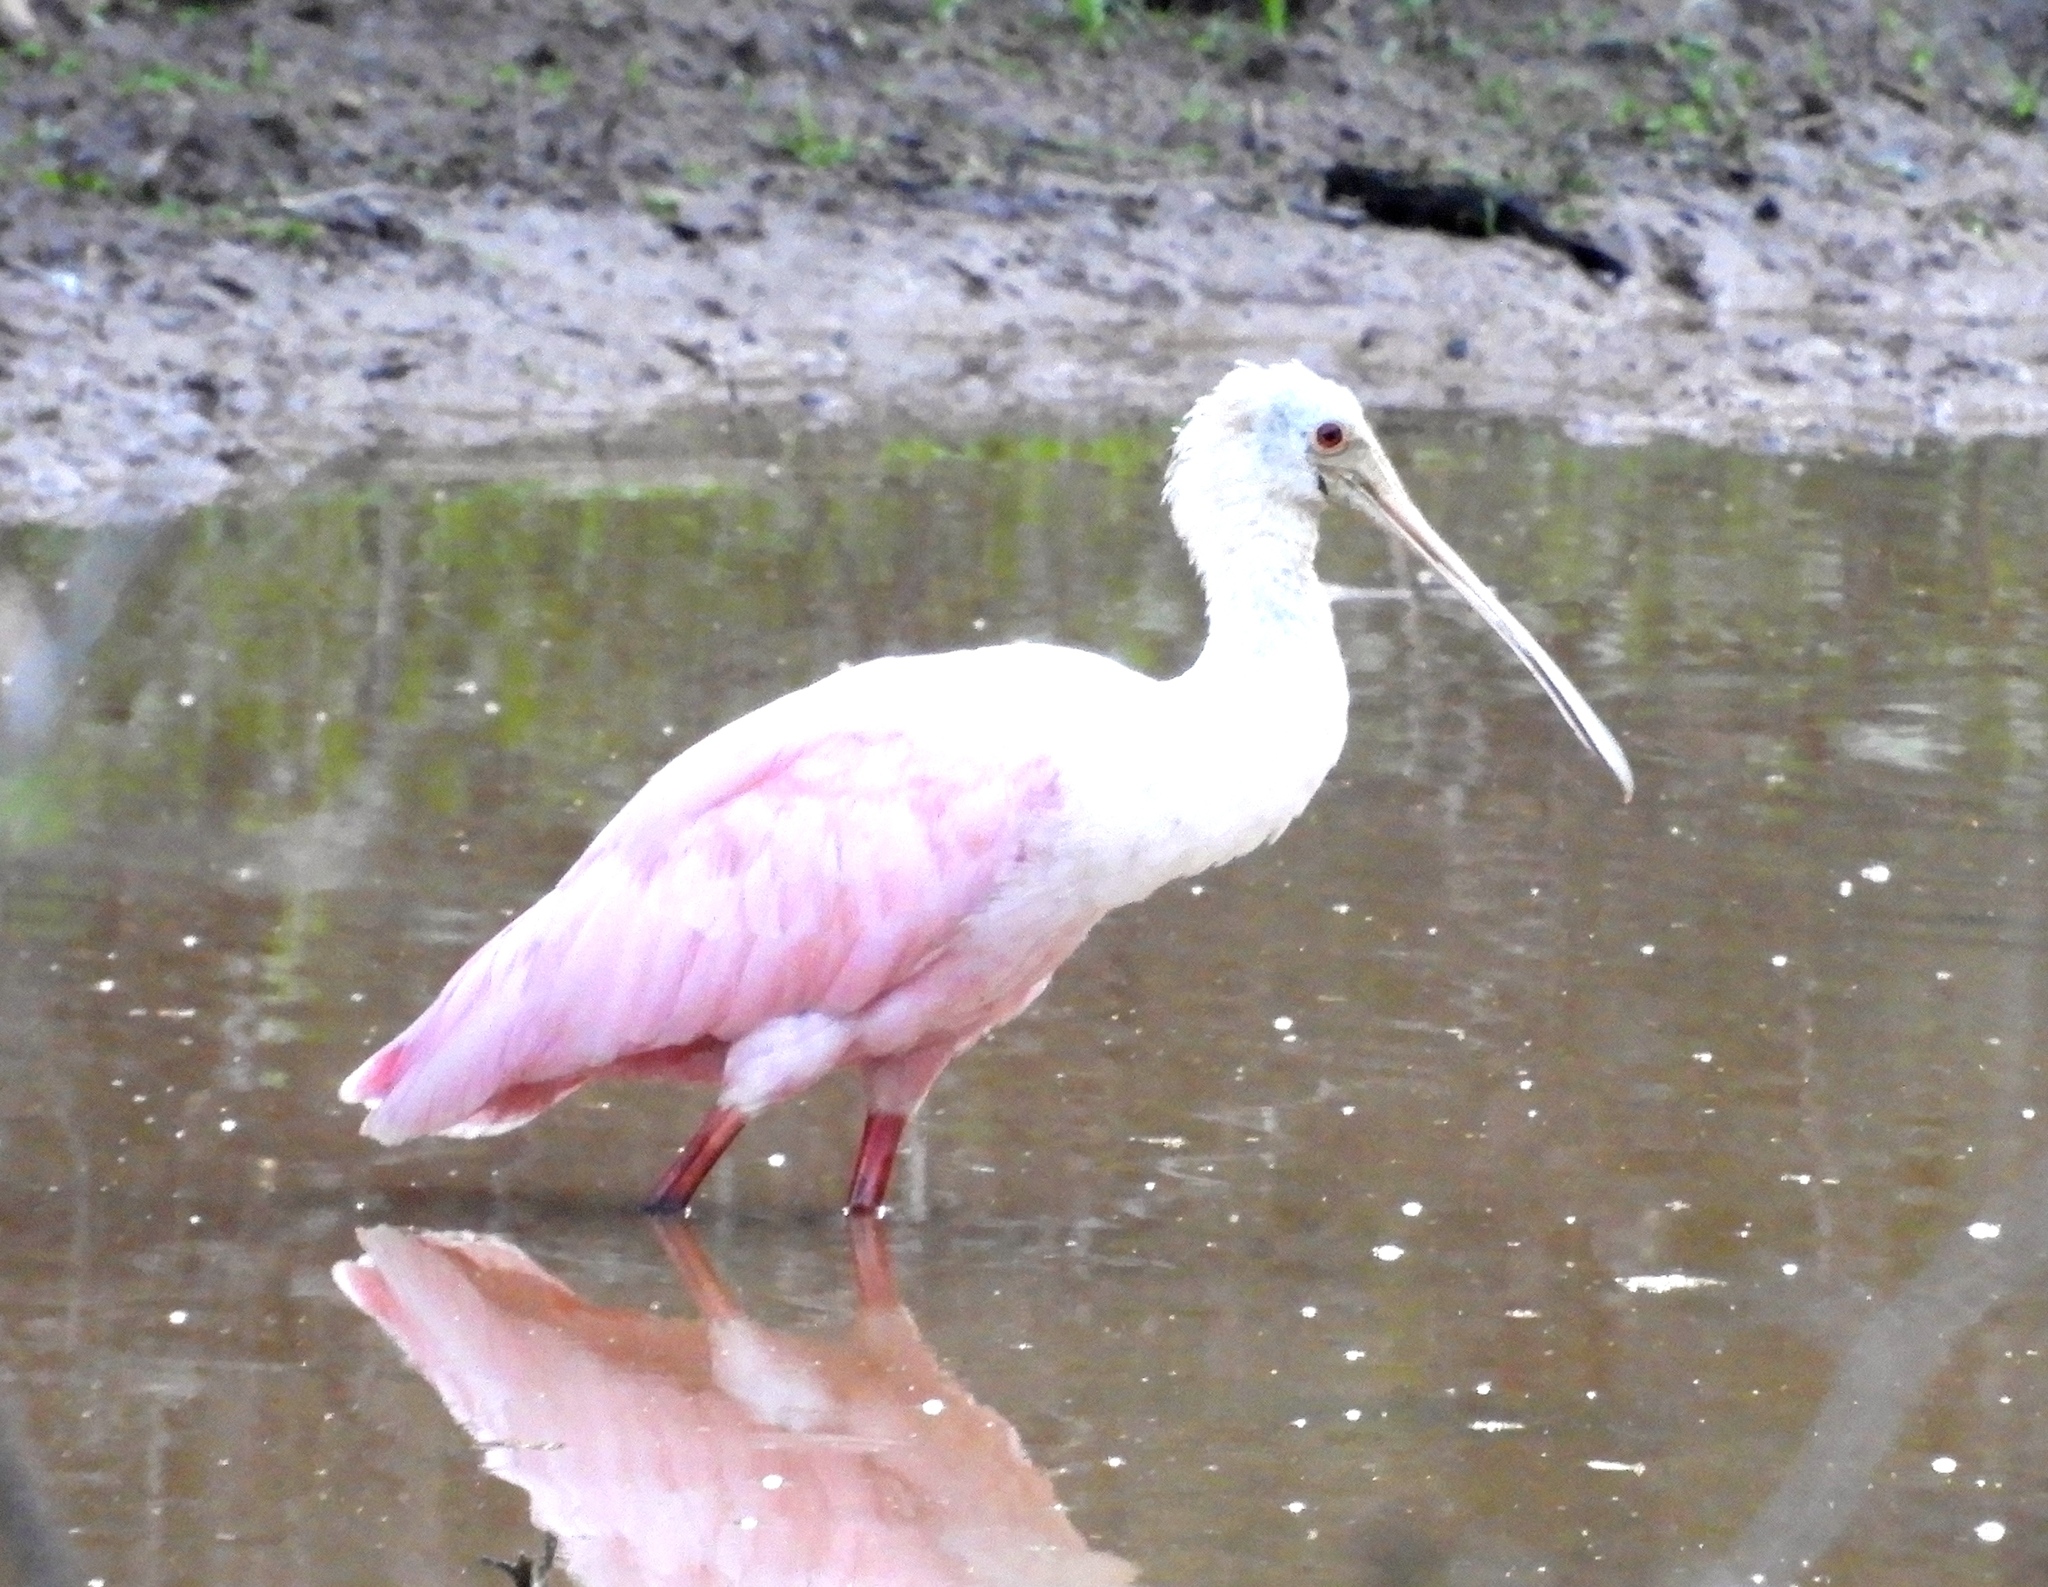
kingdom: Animalia
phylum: Chordata
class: Aves
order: Pelecaniformes
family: Threskiornithidae
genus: Platalea
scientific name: Platalea ajaja
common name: Roseate spoonbill
